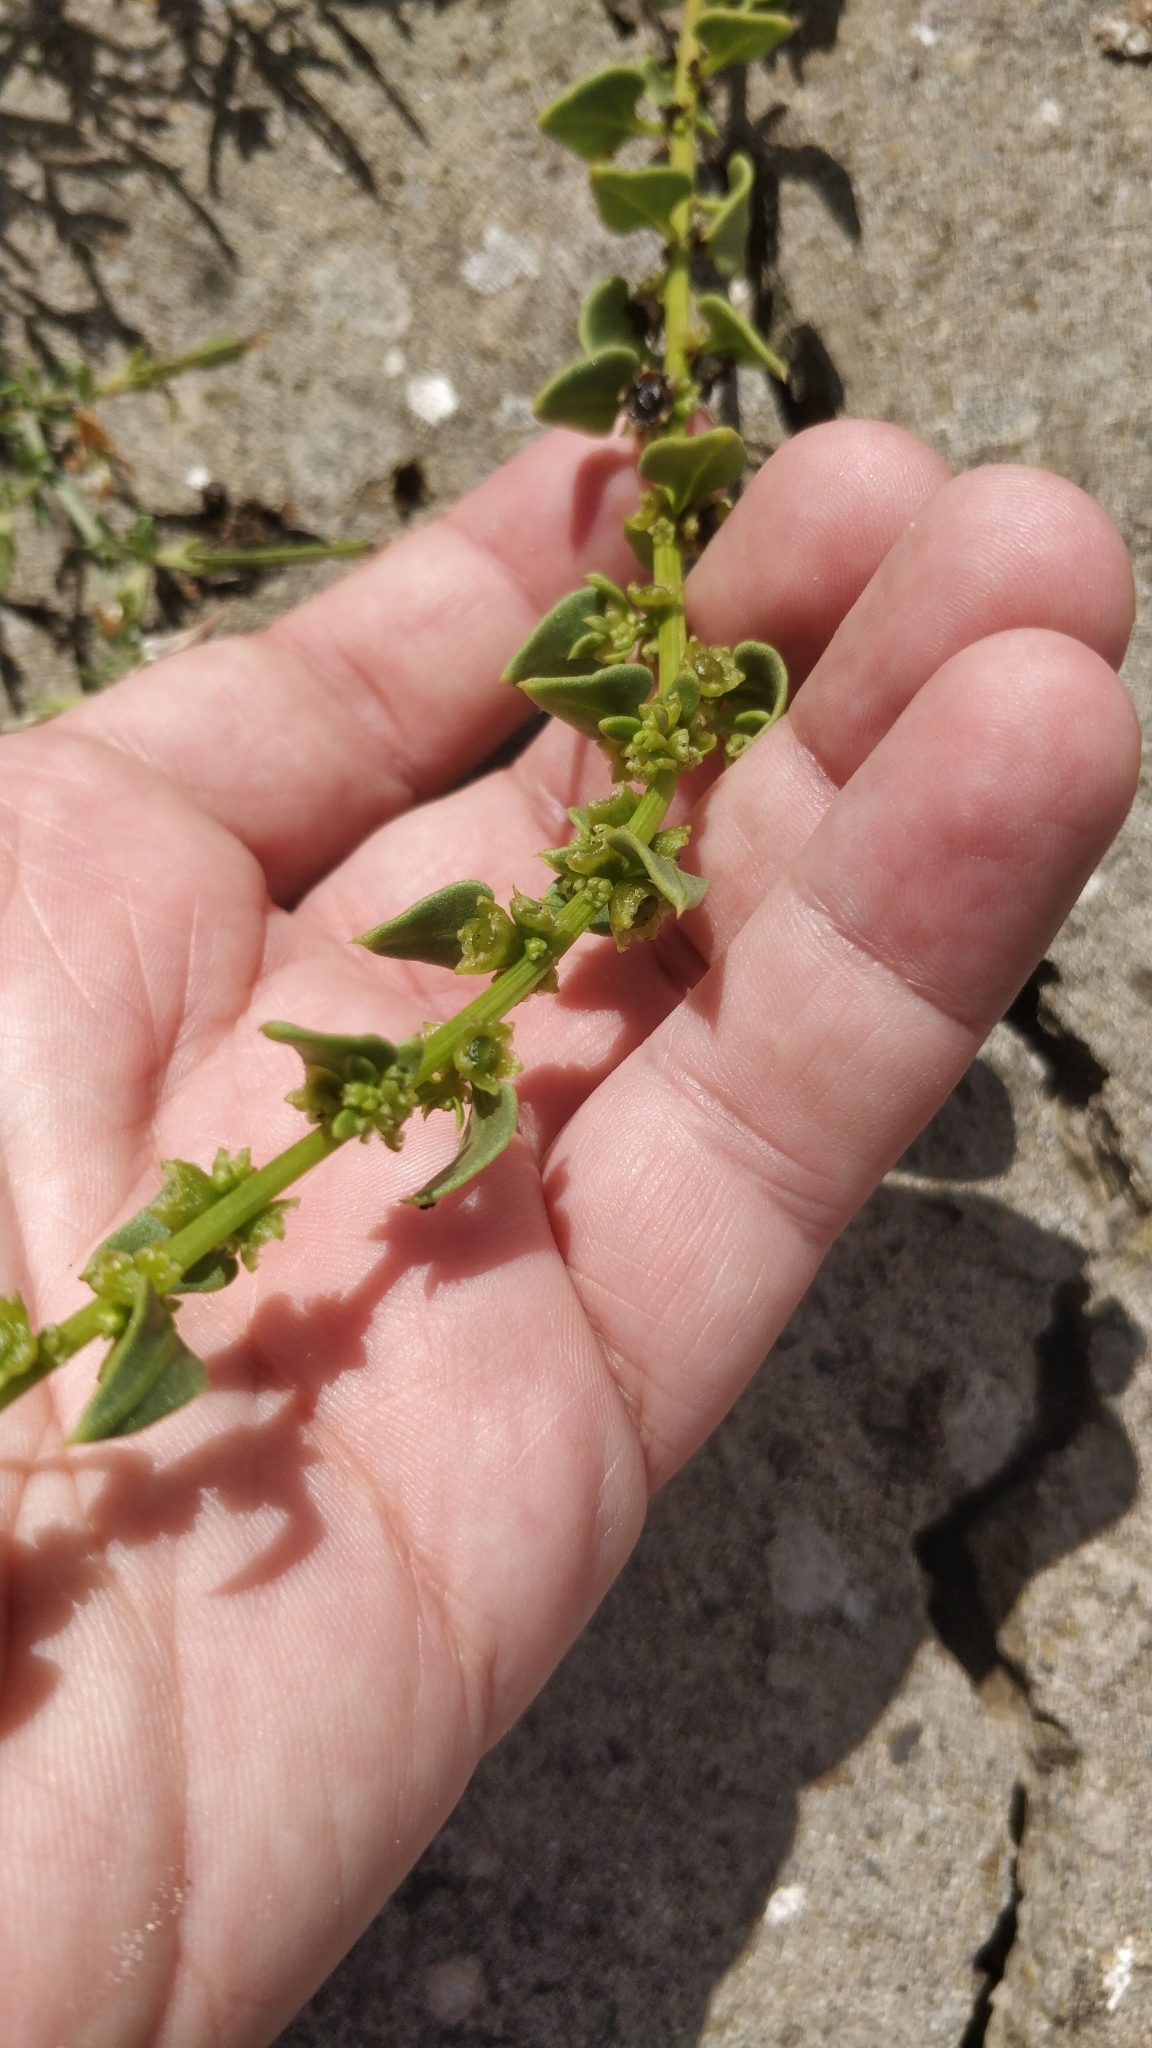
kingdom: Plantae
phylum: Tracheophyta
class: Magnoliopsida
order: Caryophyllales
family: Amaranthaceae
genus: Patellifolia
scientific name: Patellifolia procumbens
